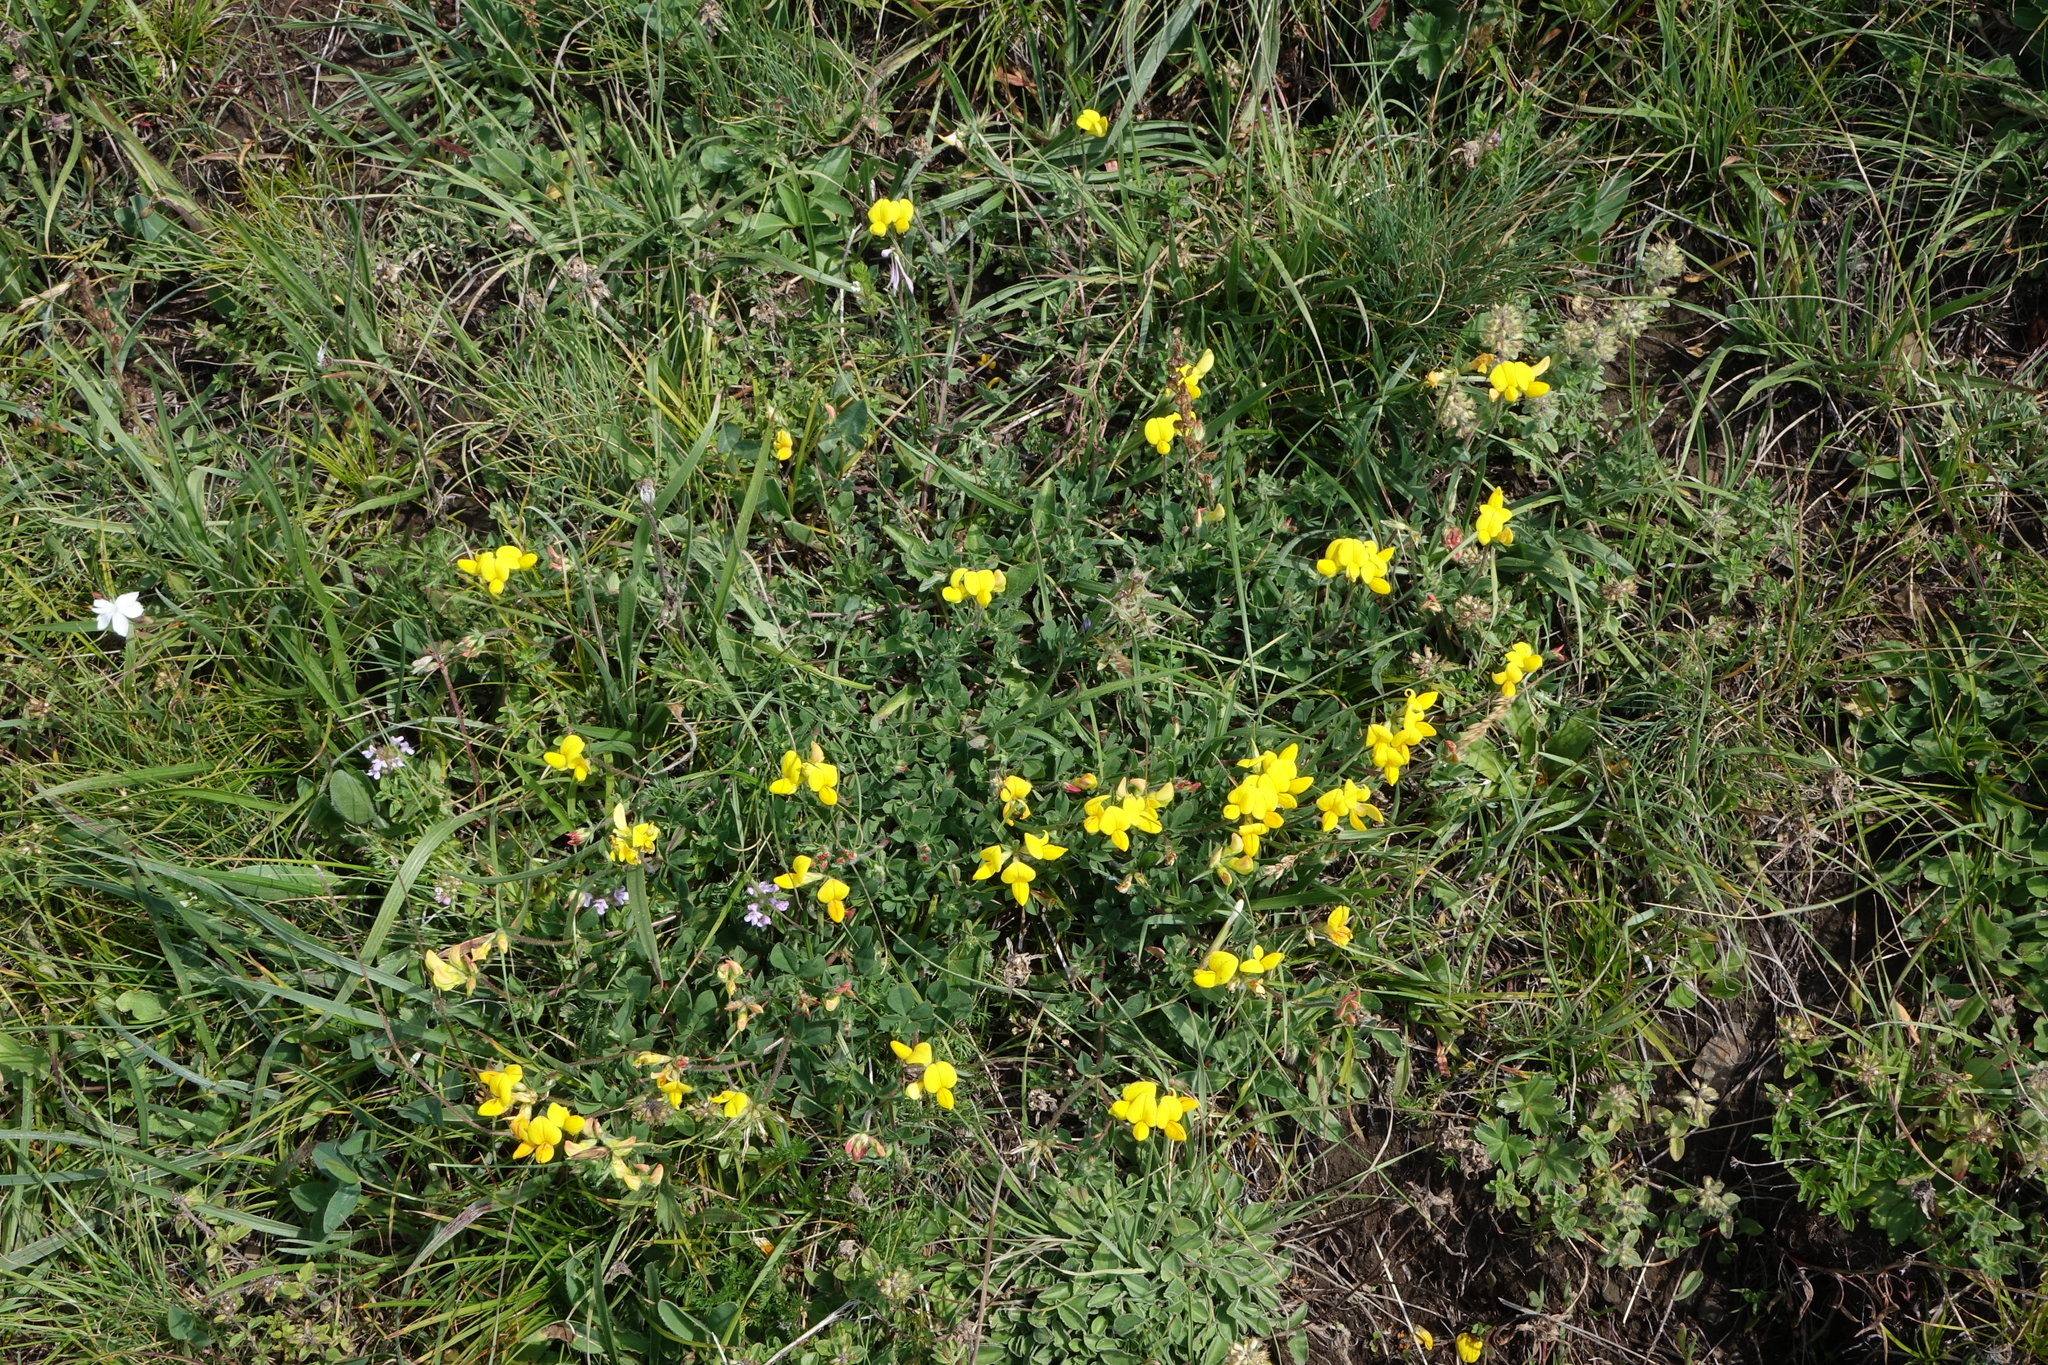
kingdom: Plantae
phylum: Tracheophyta
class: Magnoliopsida
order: Fabales
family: Fabaceae
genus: Lotus
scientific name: Lotus corniculatus
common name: Common bird's-foot-trefoil
